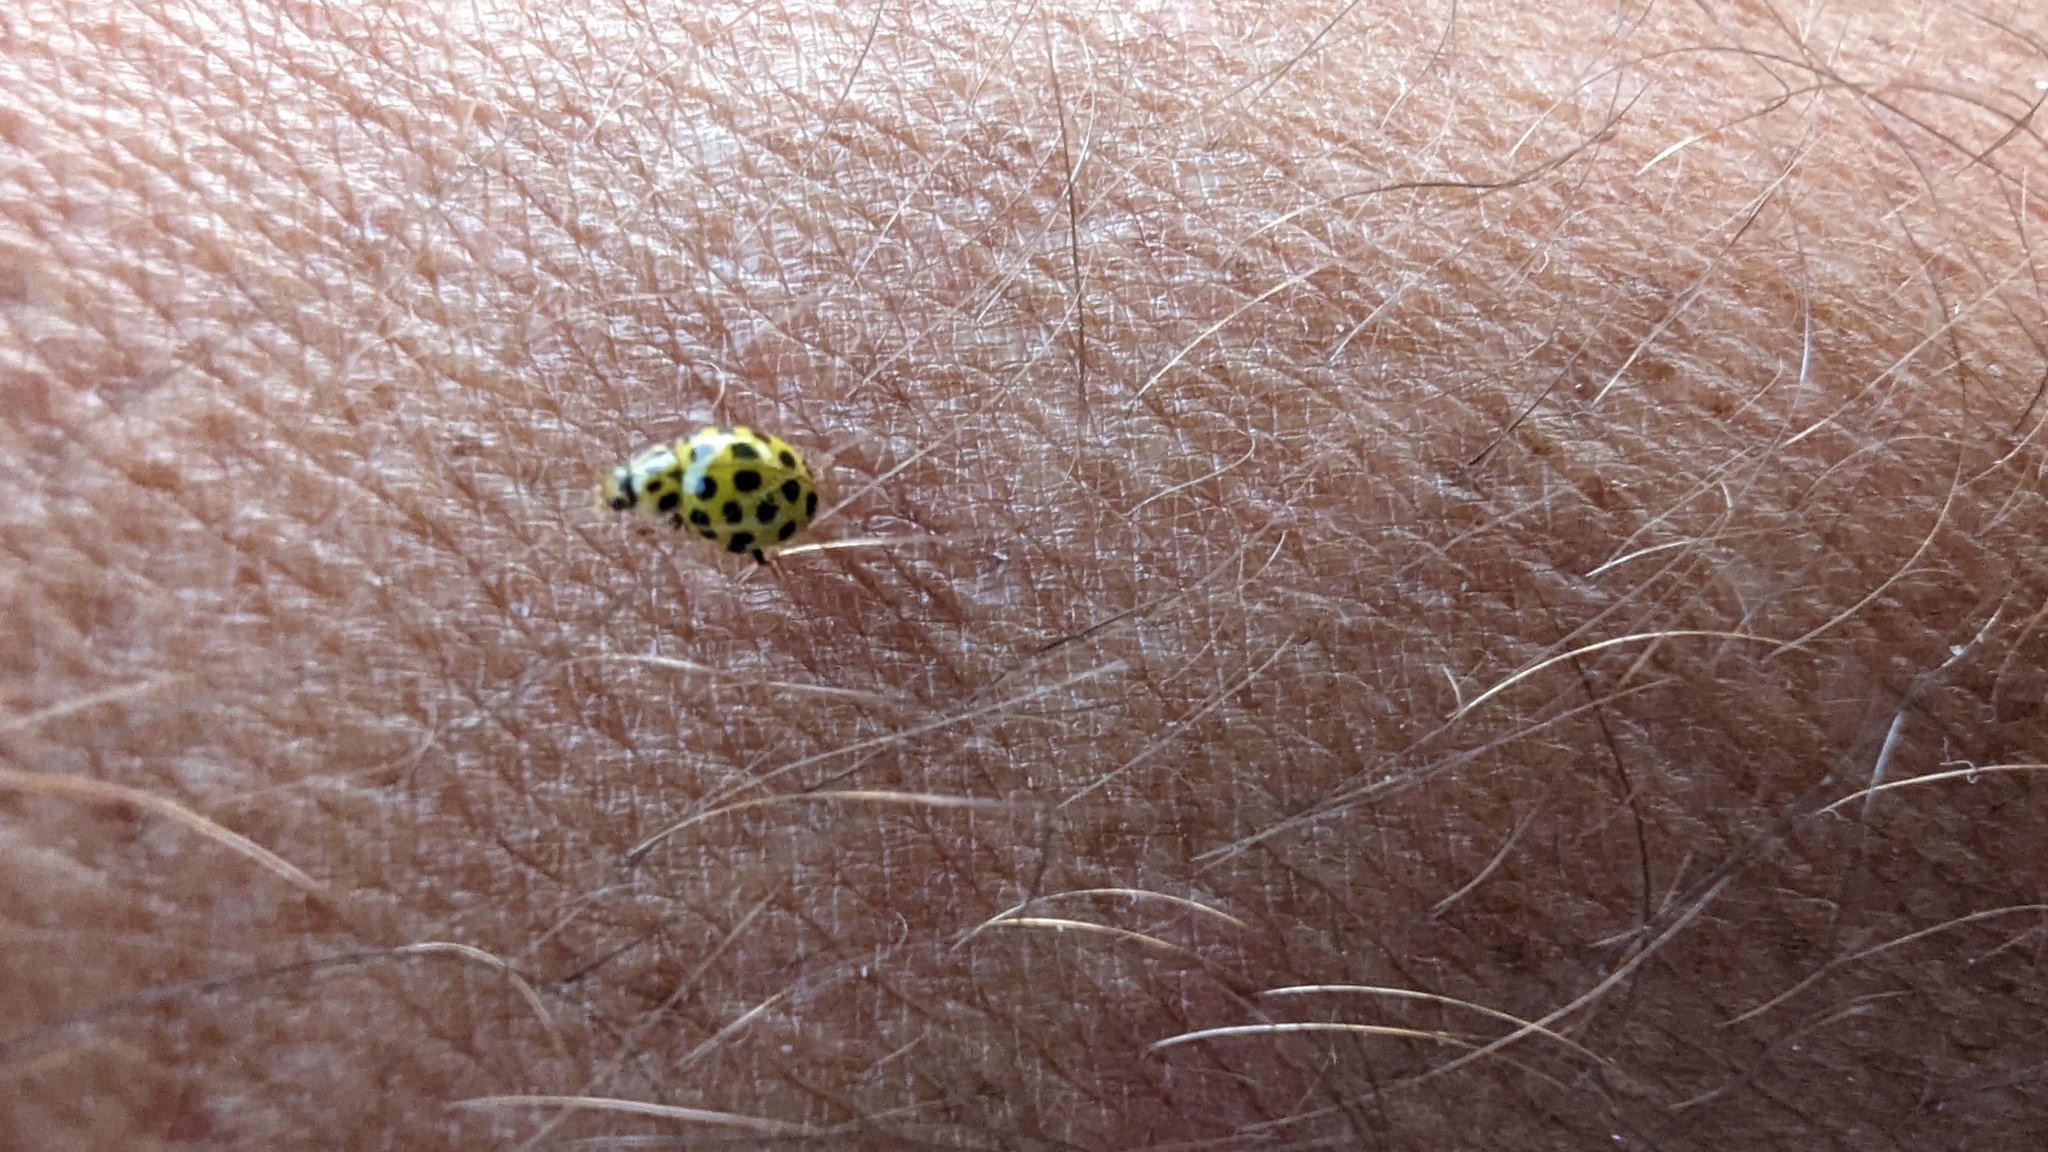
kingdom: Animalia
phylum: Arthropoda
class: Insecta
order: Coleoptera
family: Coccinellidae
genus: Psyllobora
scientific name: Psyllobora vigintiduopunctata
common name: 22-spot ladybird
